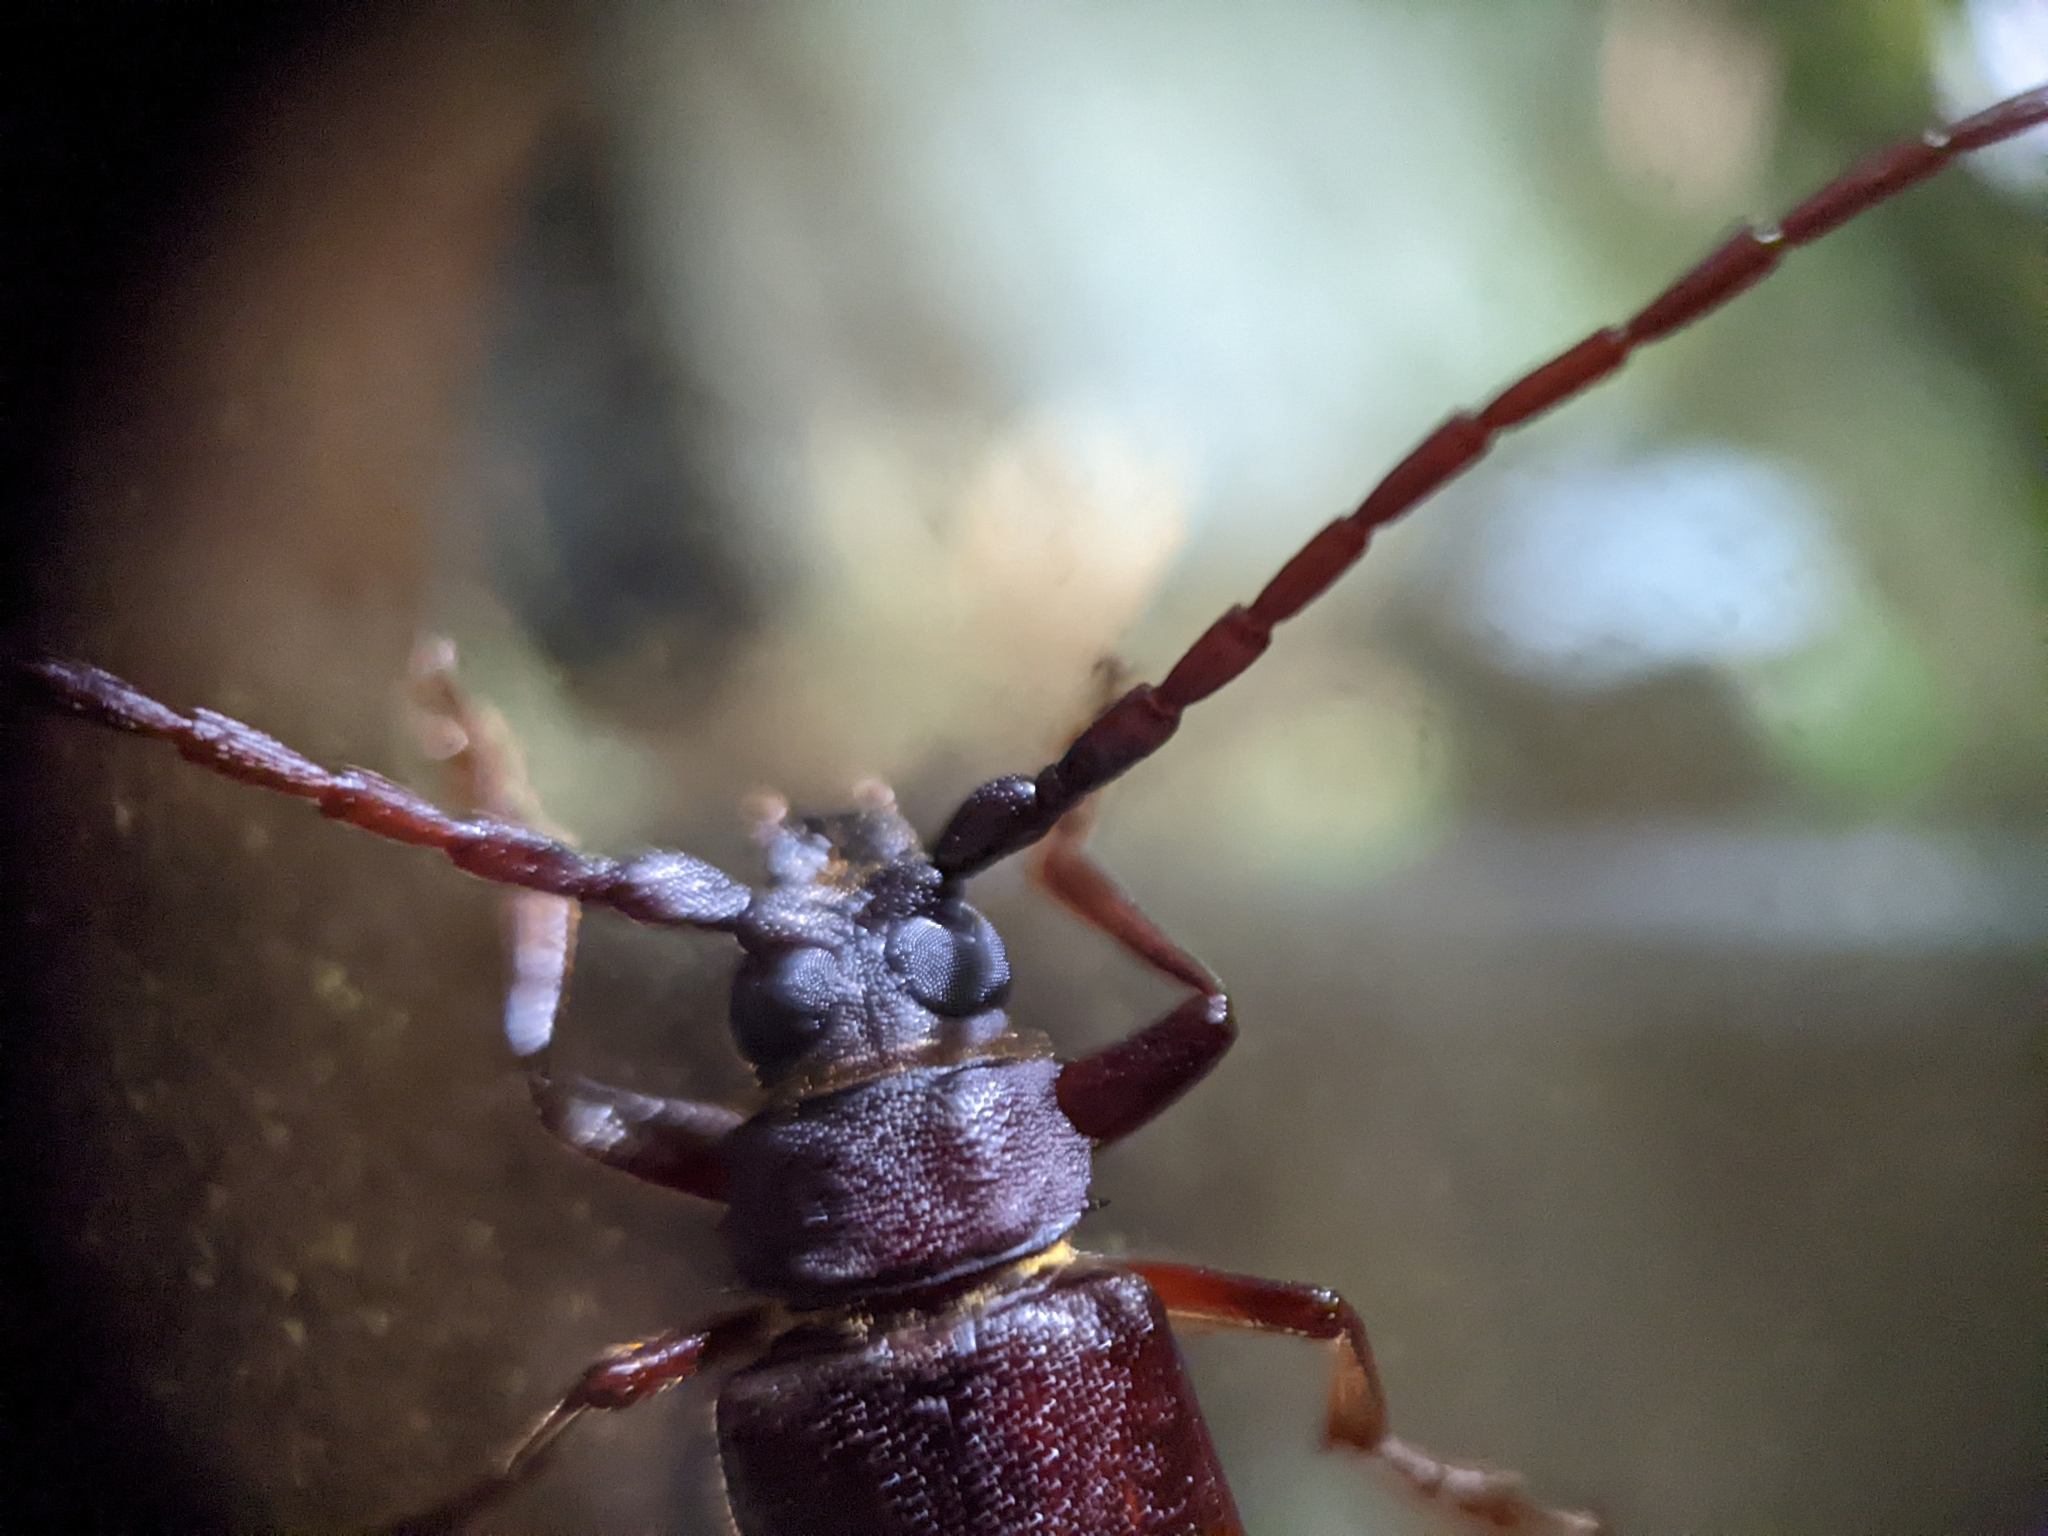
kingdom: Animalia
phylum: Arthropoda
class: Insecta
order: Coleoptera
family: Cerambycidae
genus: Orthosoma
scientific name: Orthosoma brunneum
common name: Brown prionid beetle
